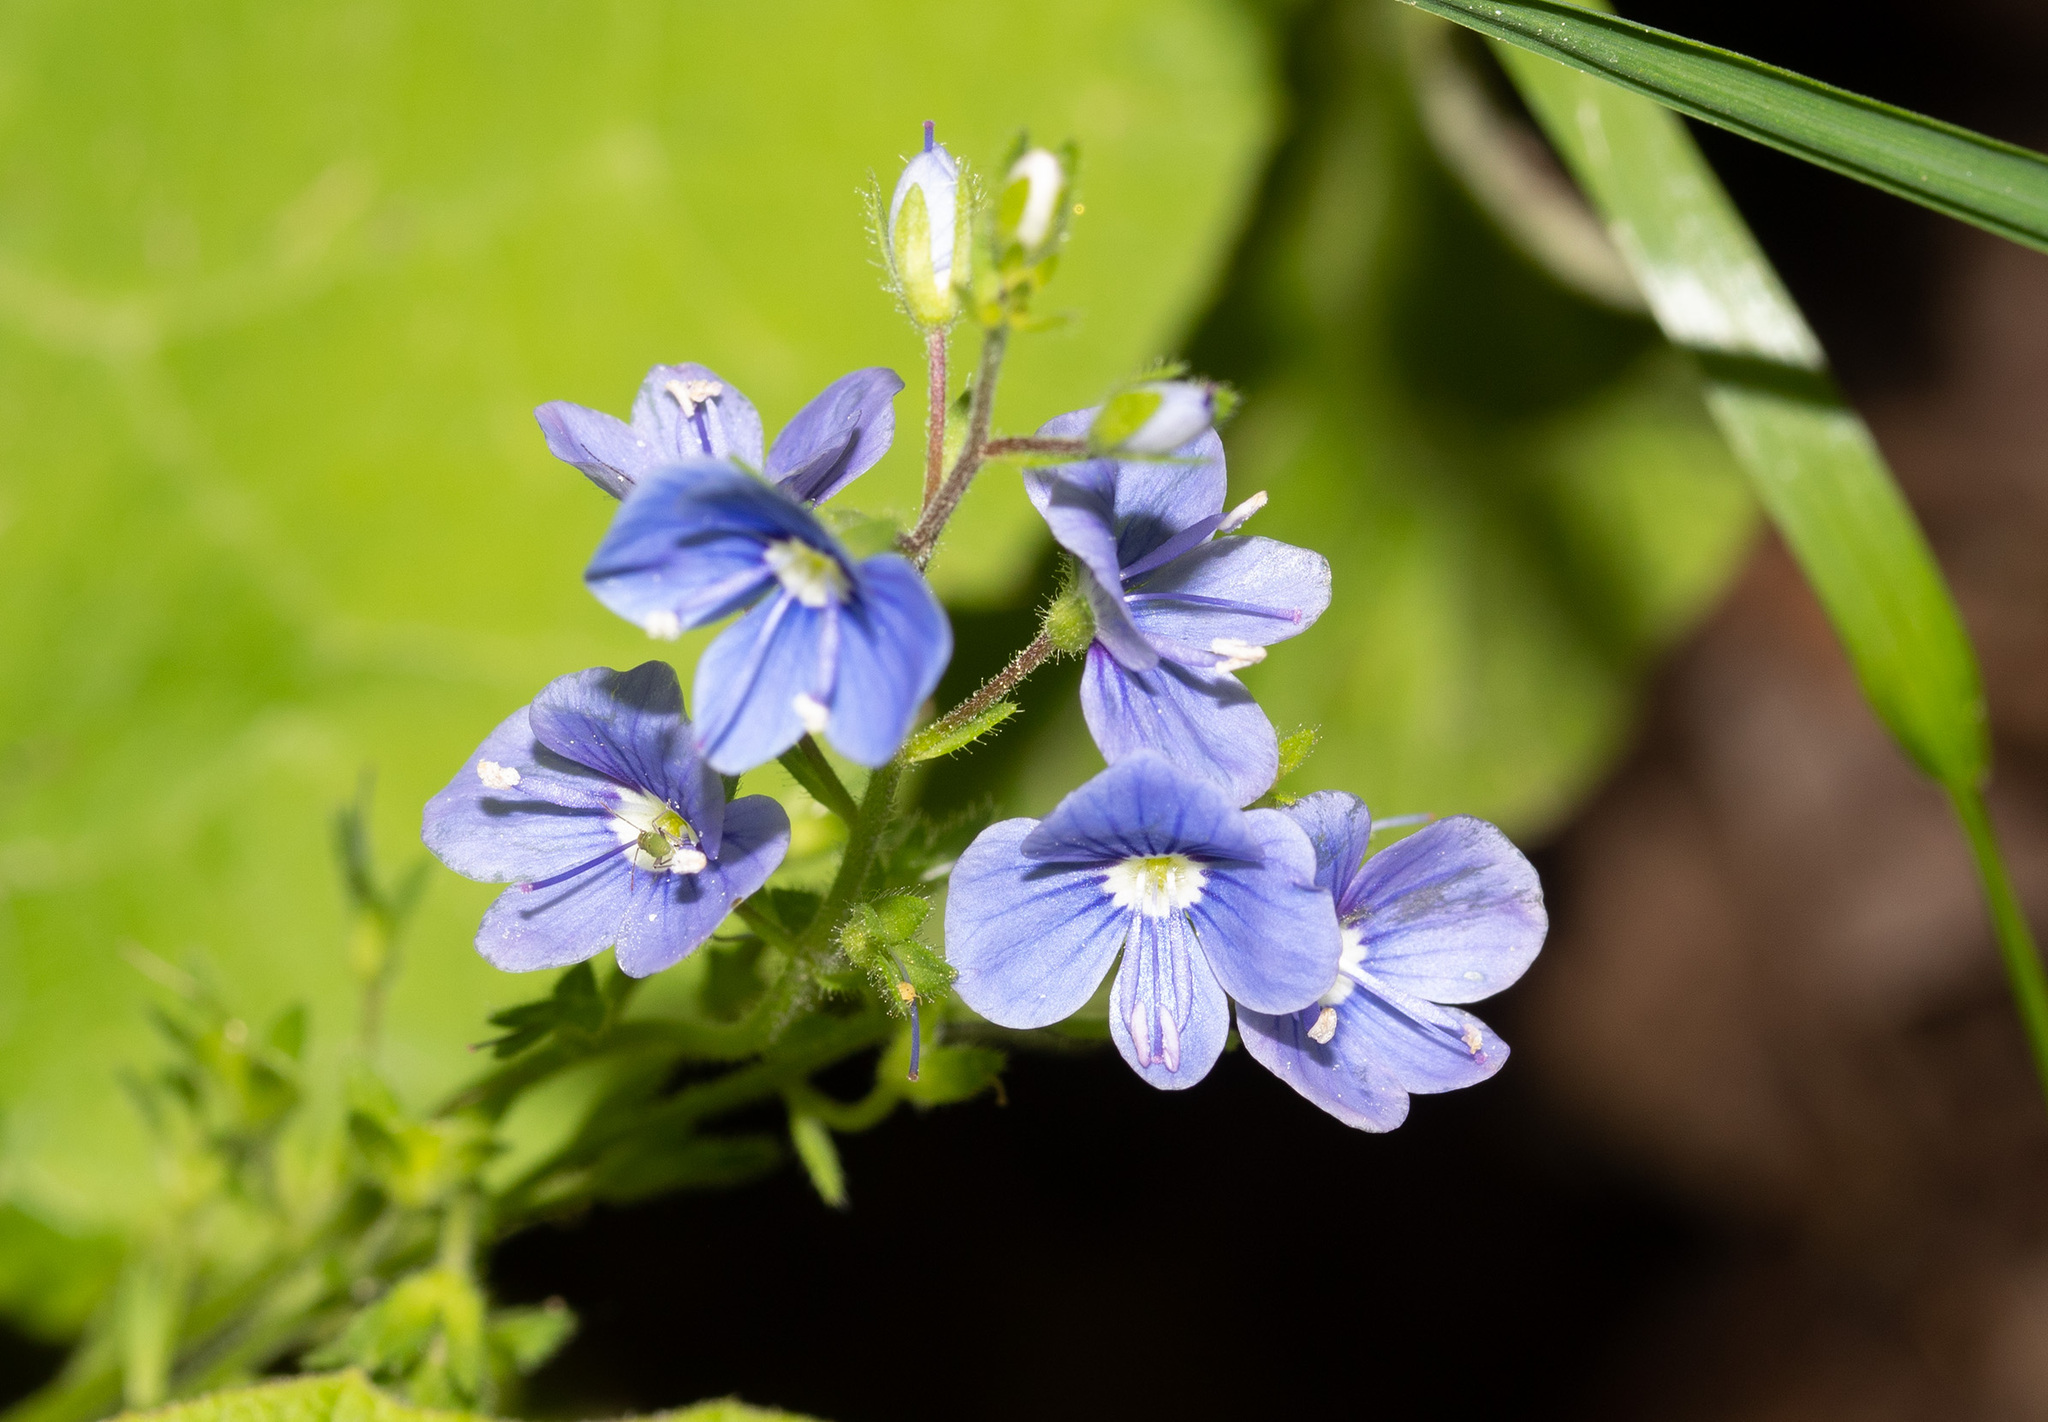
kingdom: Plantae
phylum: Tracheophyta
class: Magnoliopsida
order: Lamiales
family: Plantaginaceae
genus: Veronica
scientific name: Veronica chamaedrys
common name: Germander speedwell
